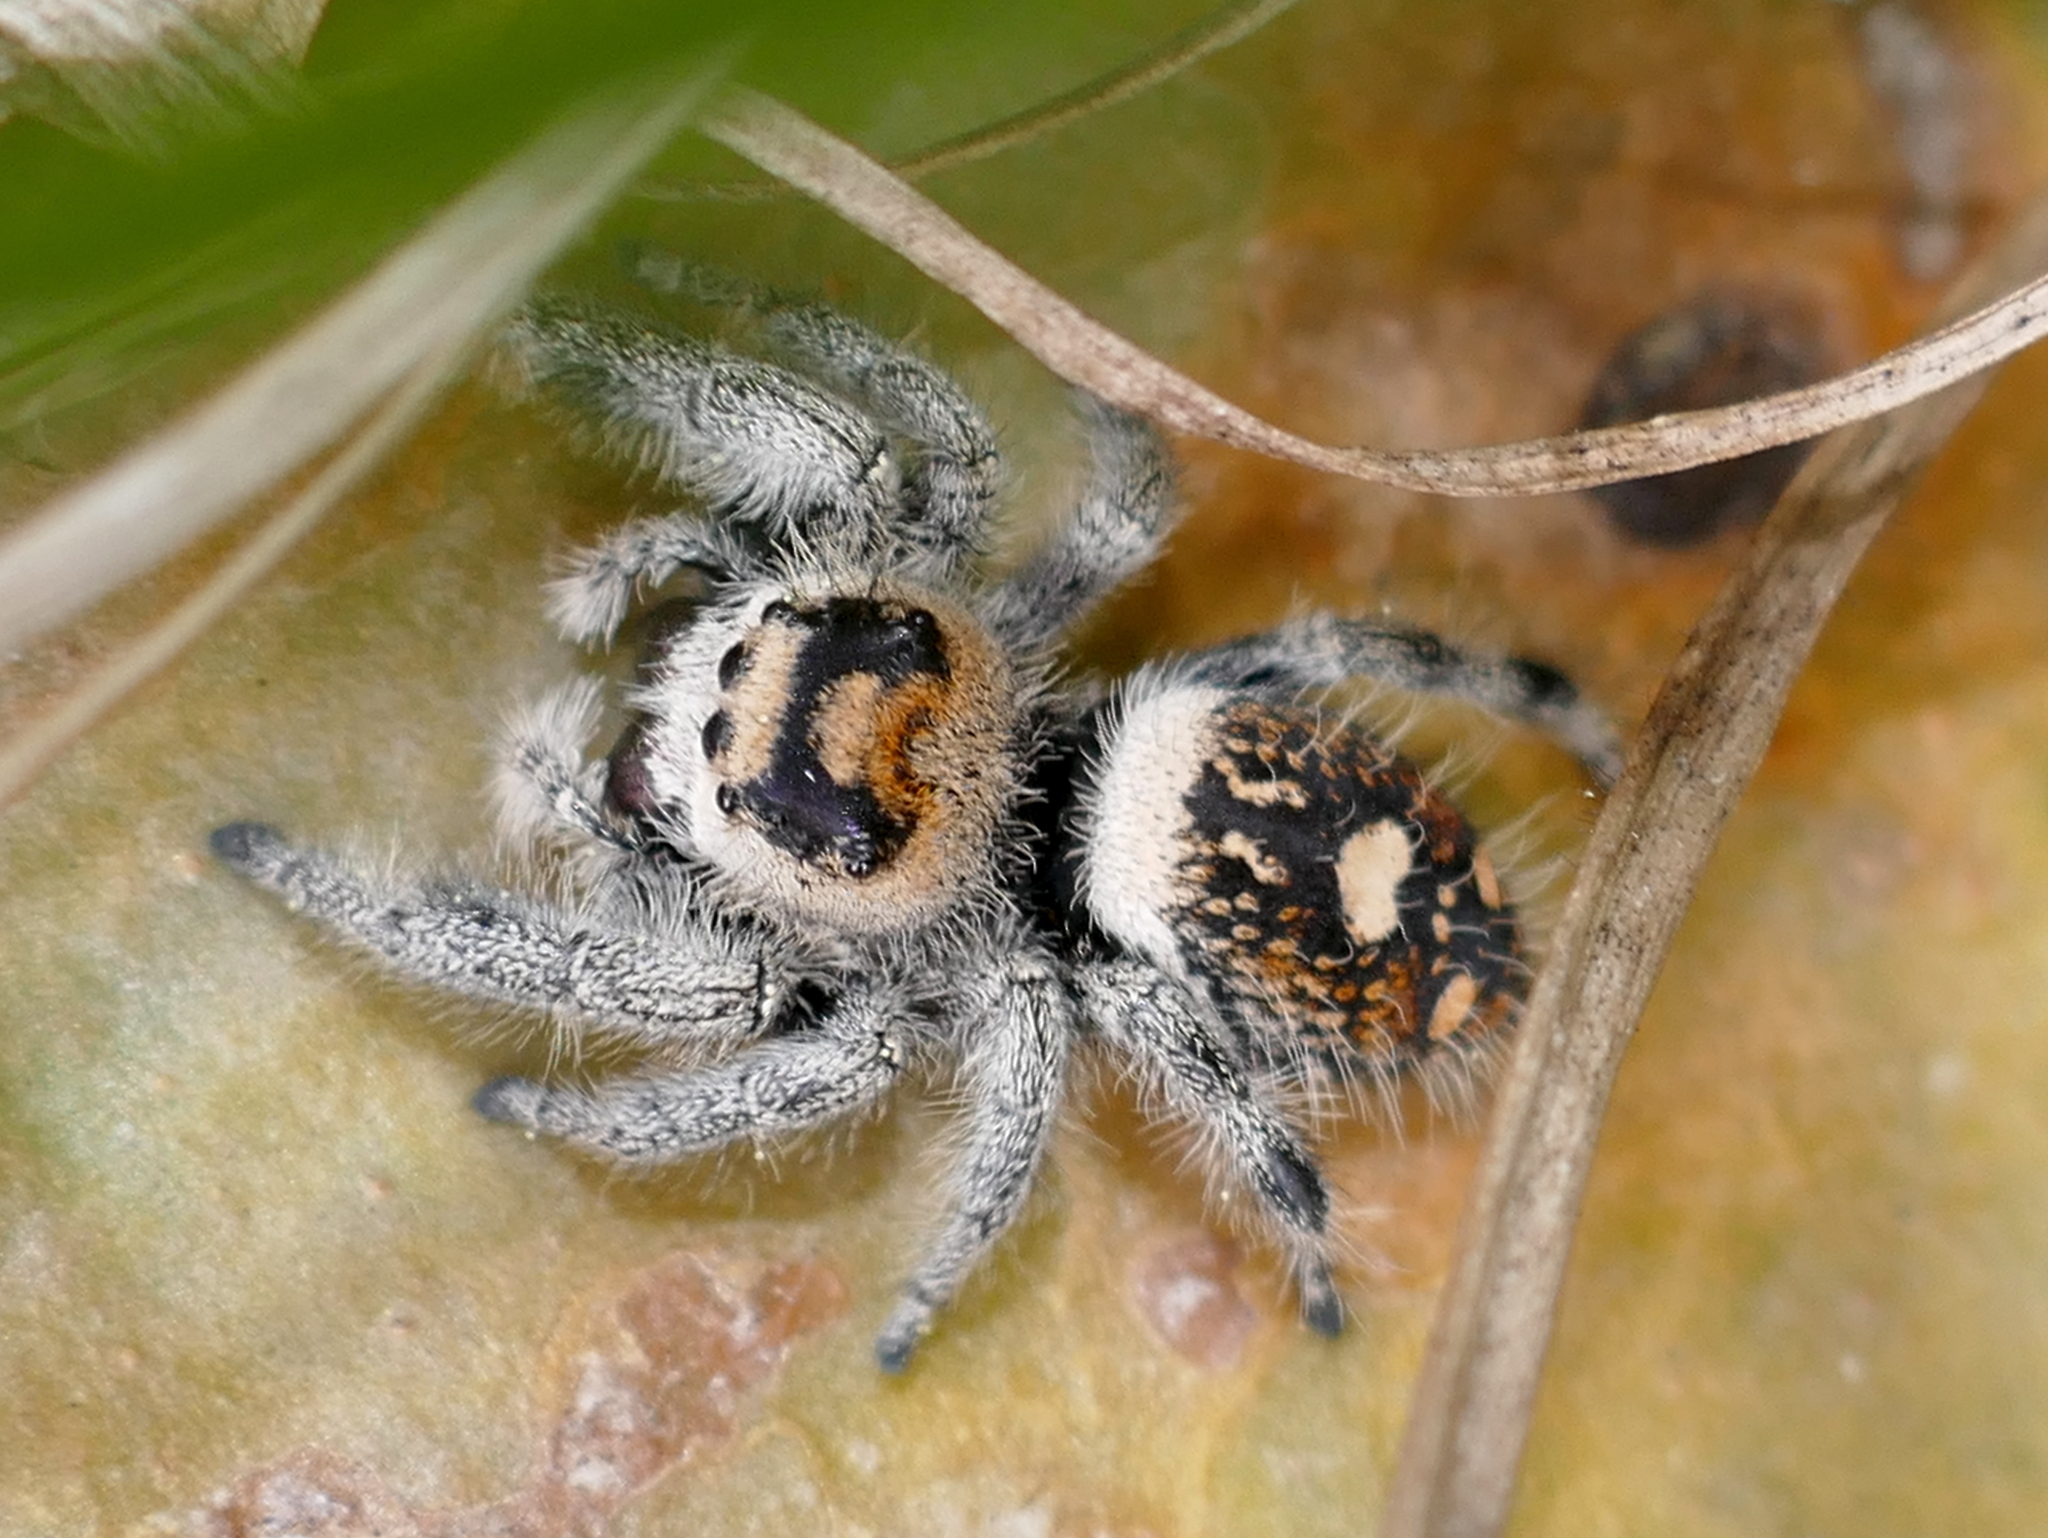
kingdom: Animalia
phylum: Arthropoda
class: Arachnida
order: Araneae
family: Salticidae
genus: Phidippus
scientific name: Phidippus regius
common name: Regal jumper
